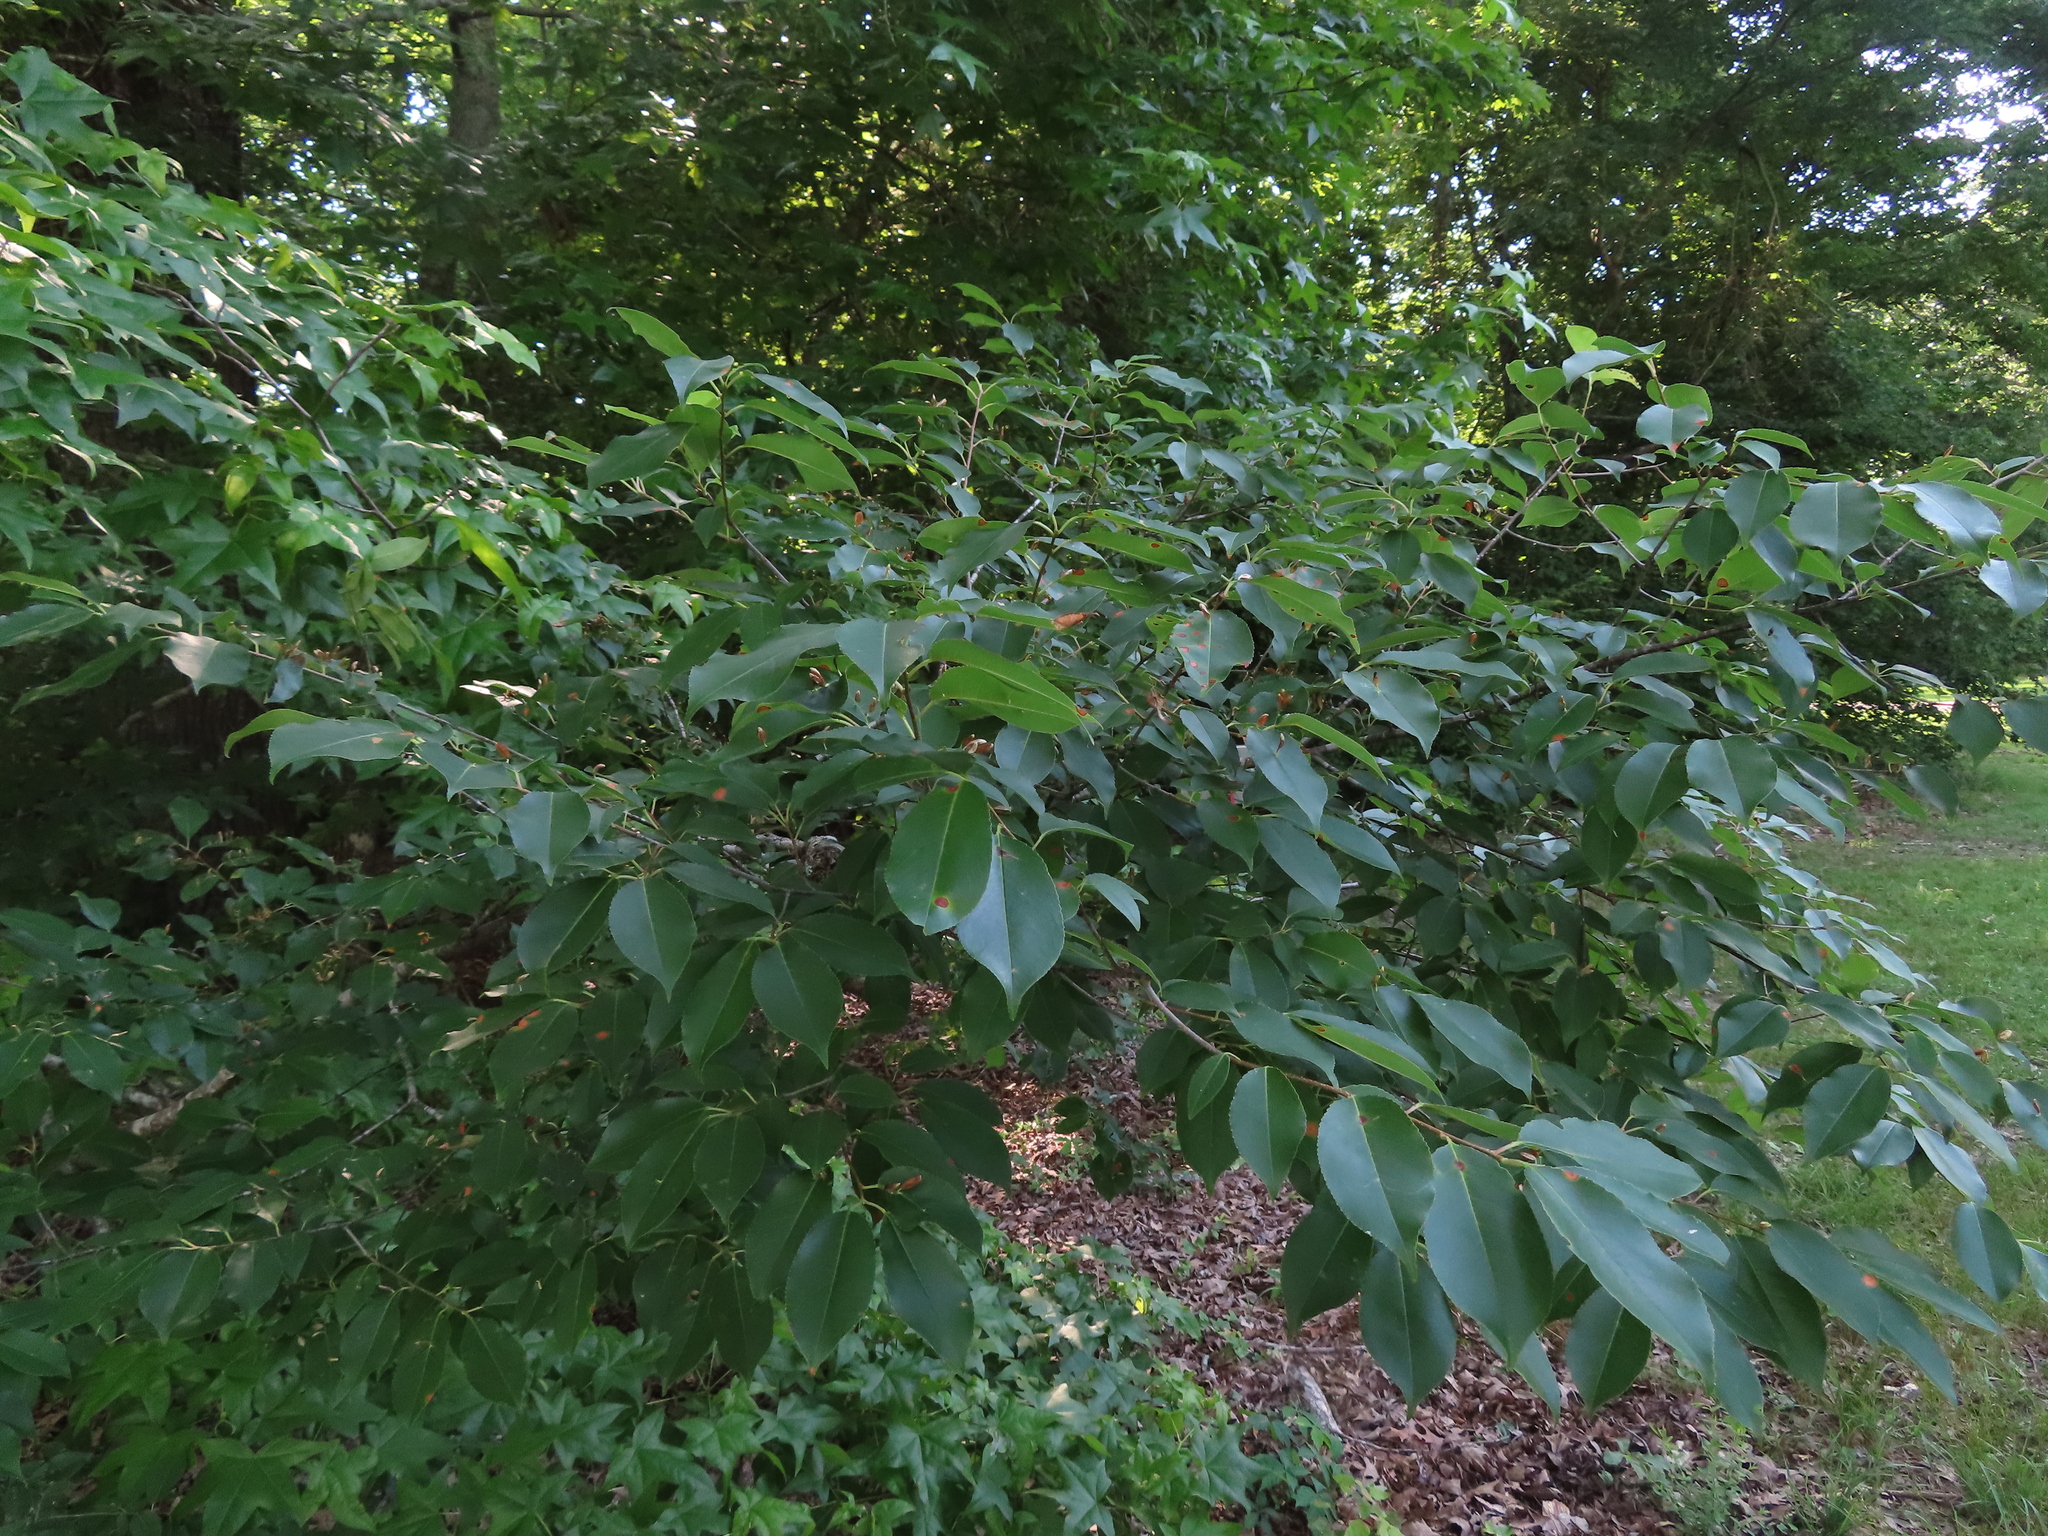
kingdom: Plantae
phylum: Tracheophyta
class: Magnoliopsida
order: Rosales
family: Rosaceae
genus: Prunus
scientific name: Prunus serotina
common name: Black cherry
